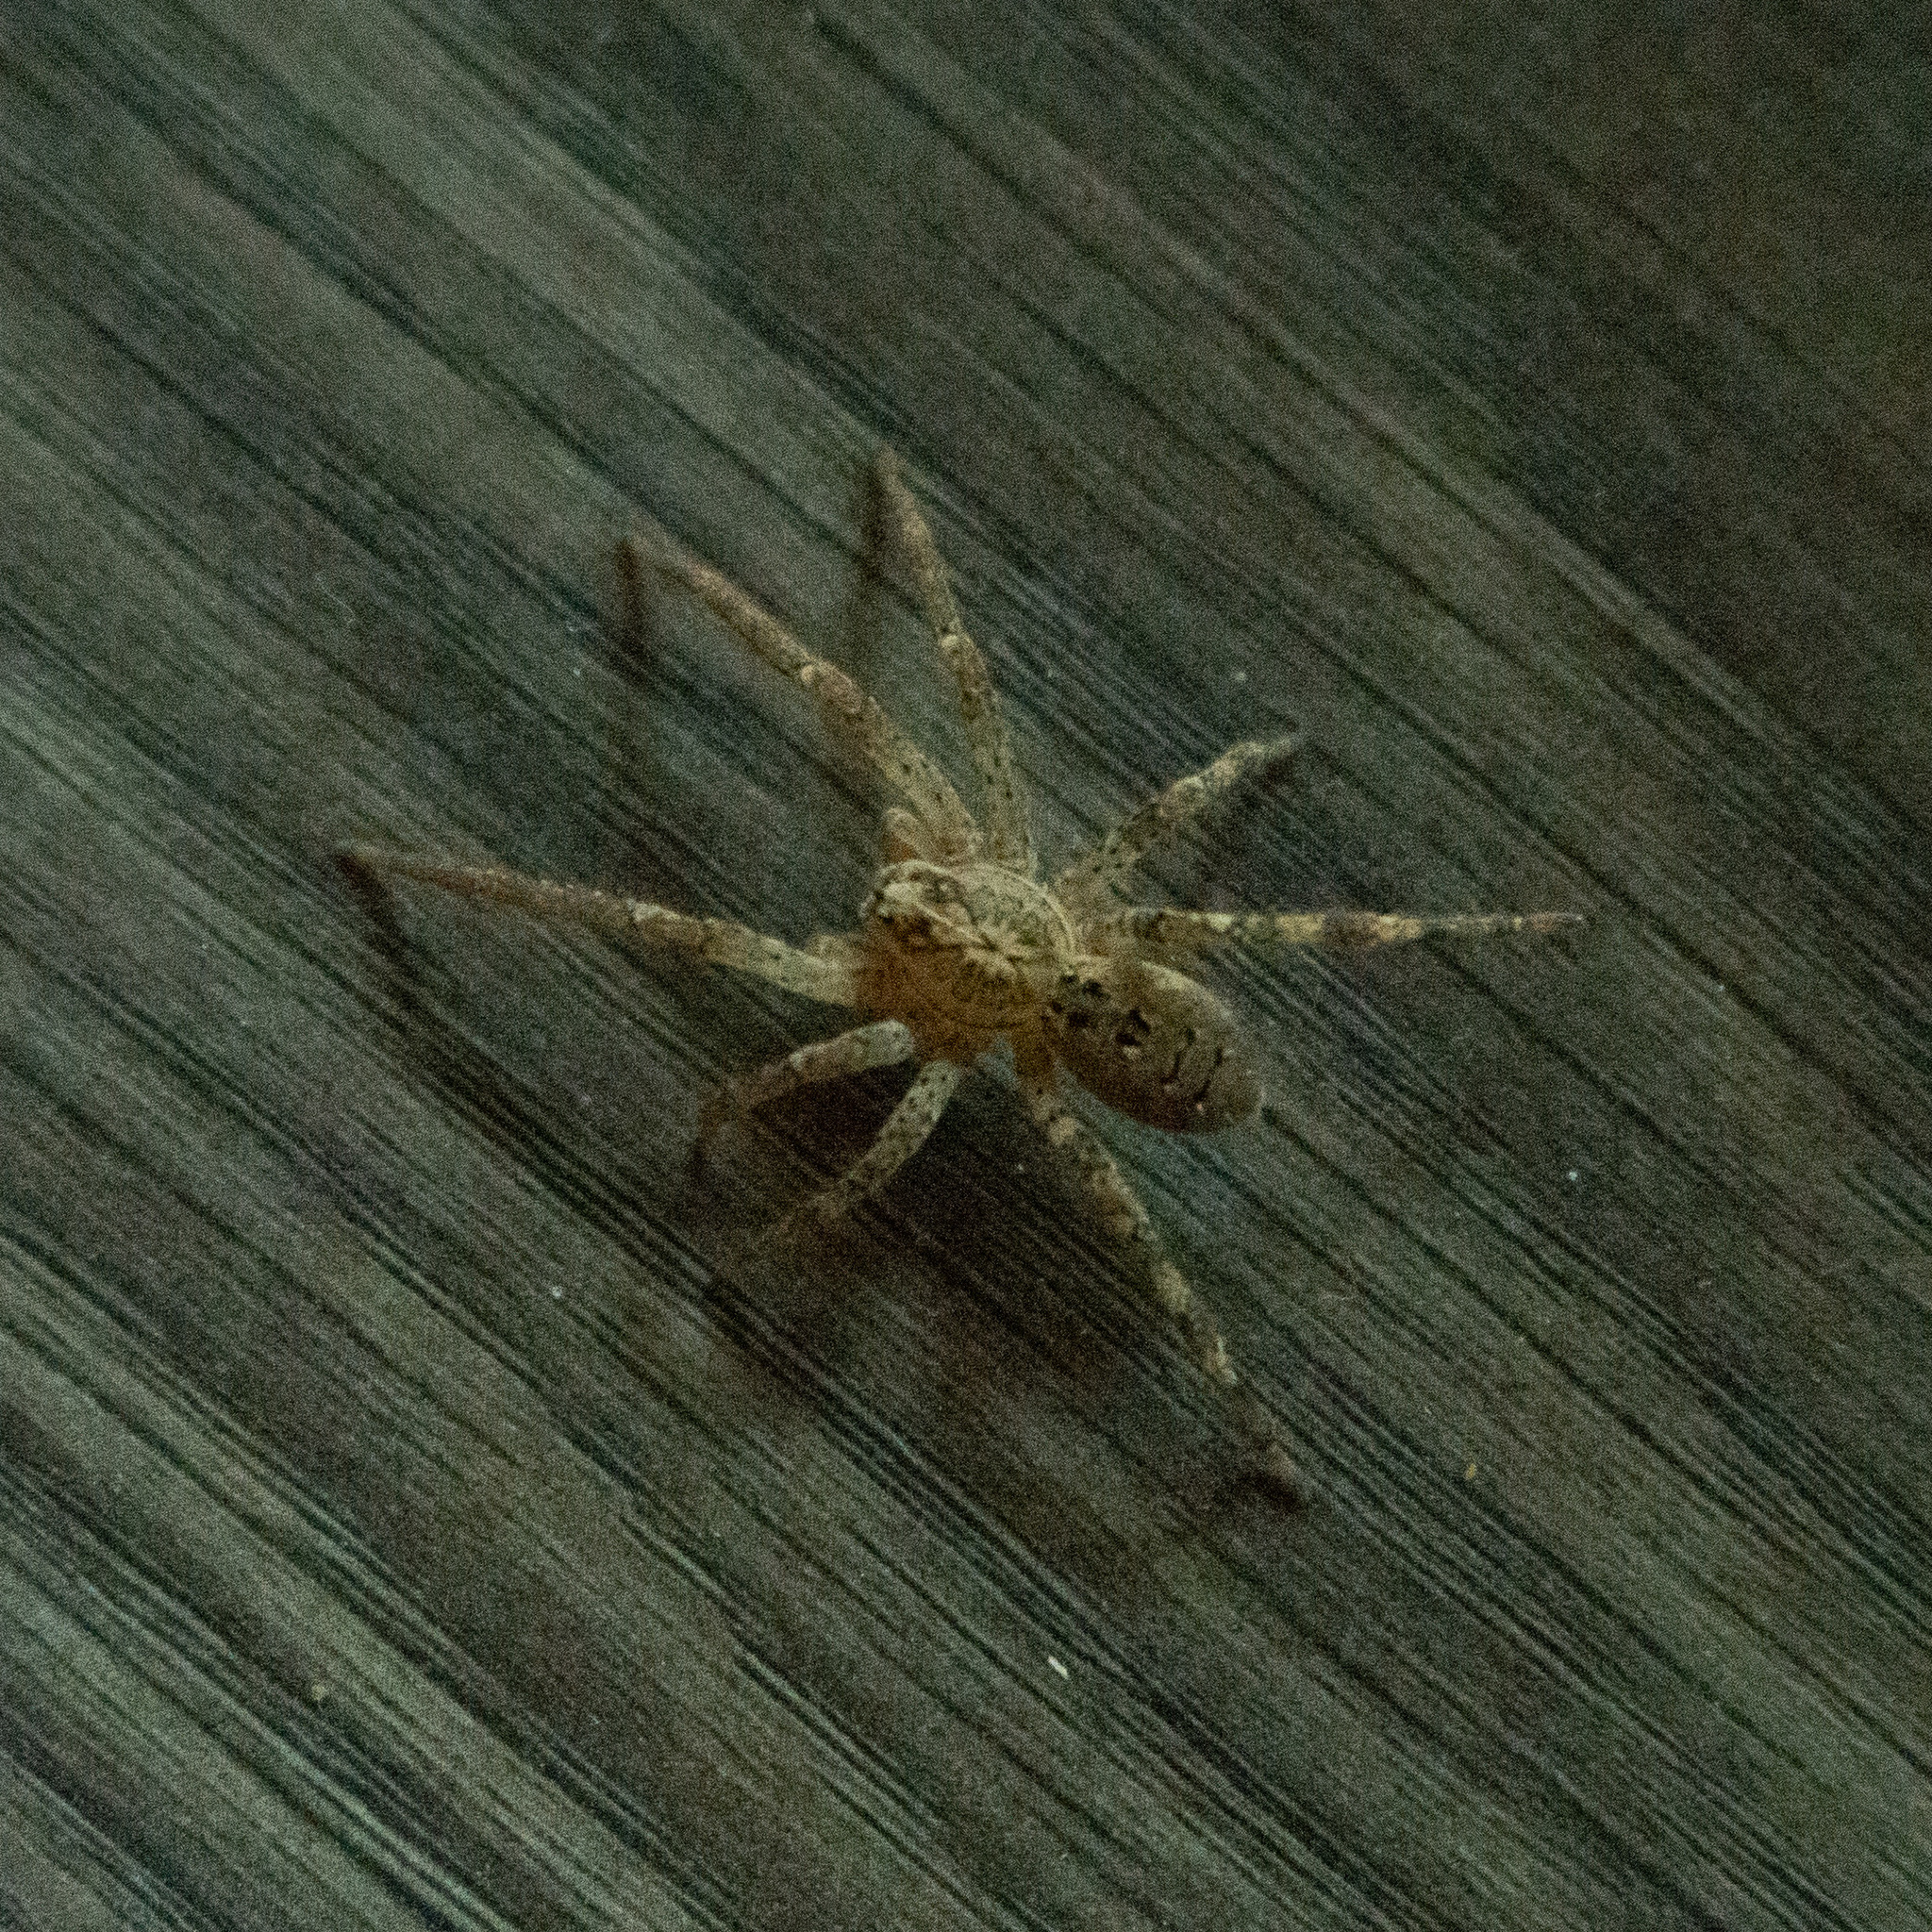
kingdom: Animalia
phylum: Arthropoda
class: Arachnida
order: Araneae
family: Zoropsidae
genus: Zoropsis
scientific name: Zoropsis spinimana
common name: Zoropsid spider
